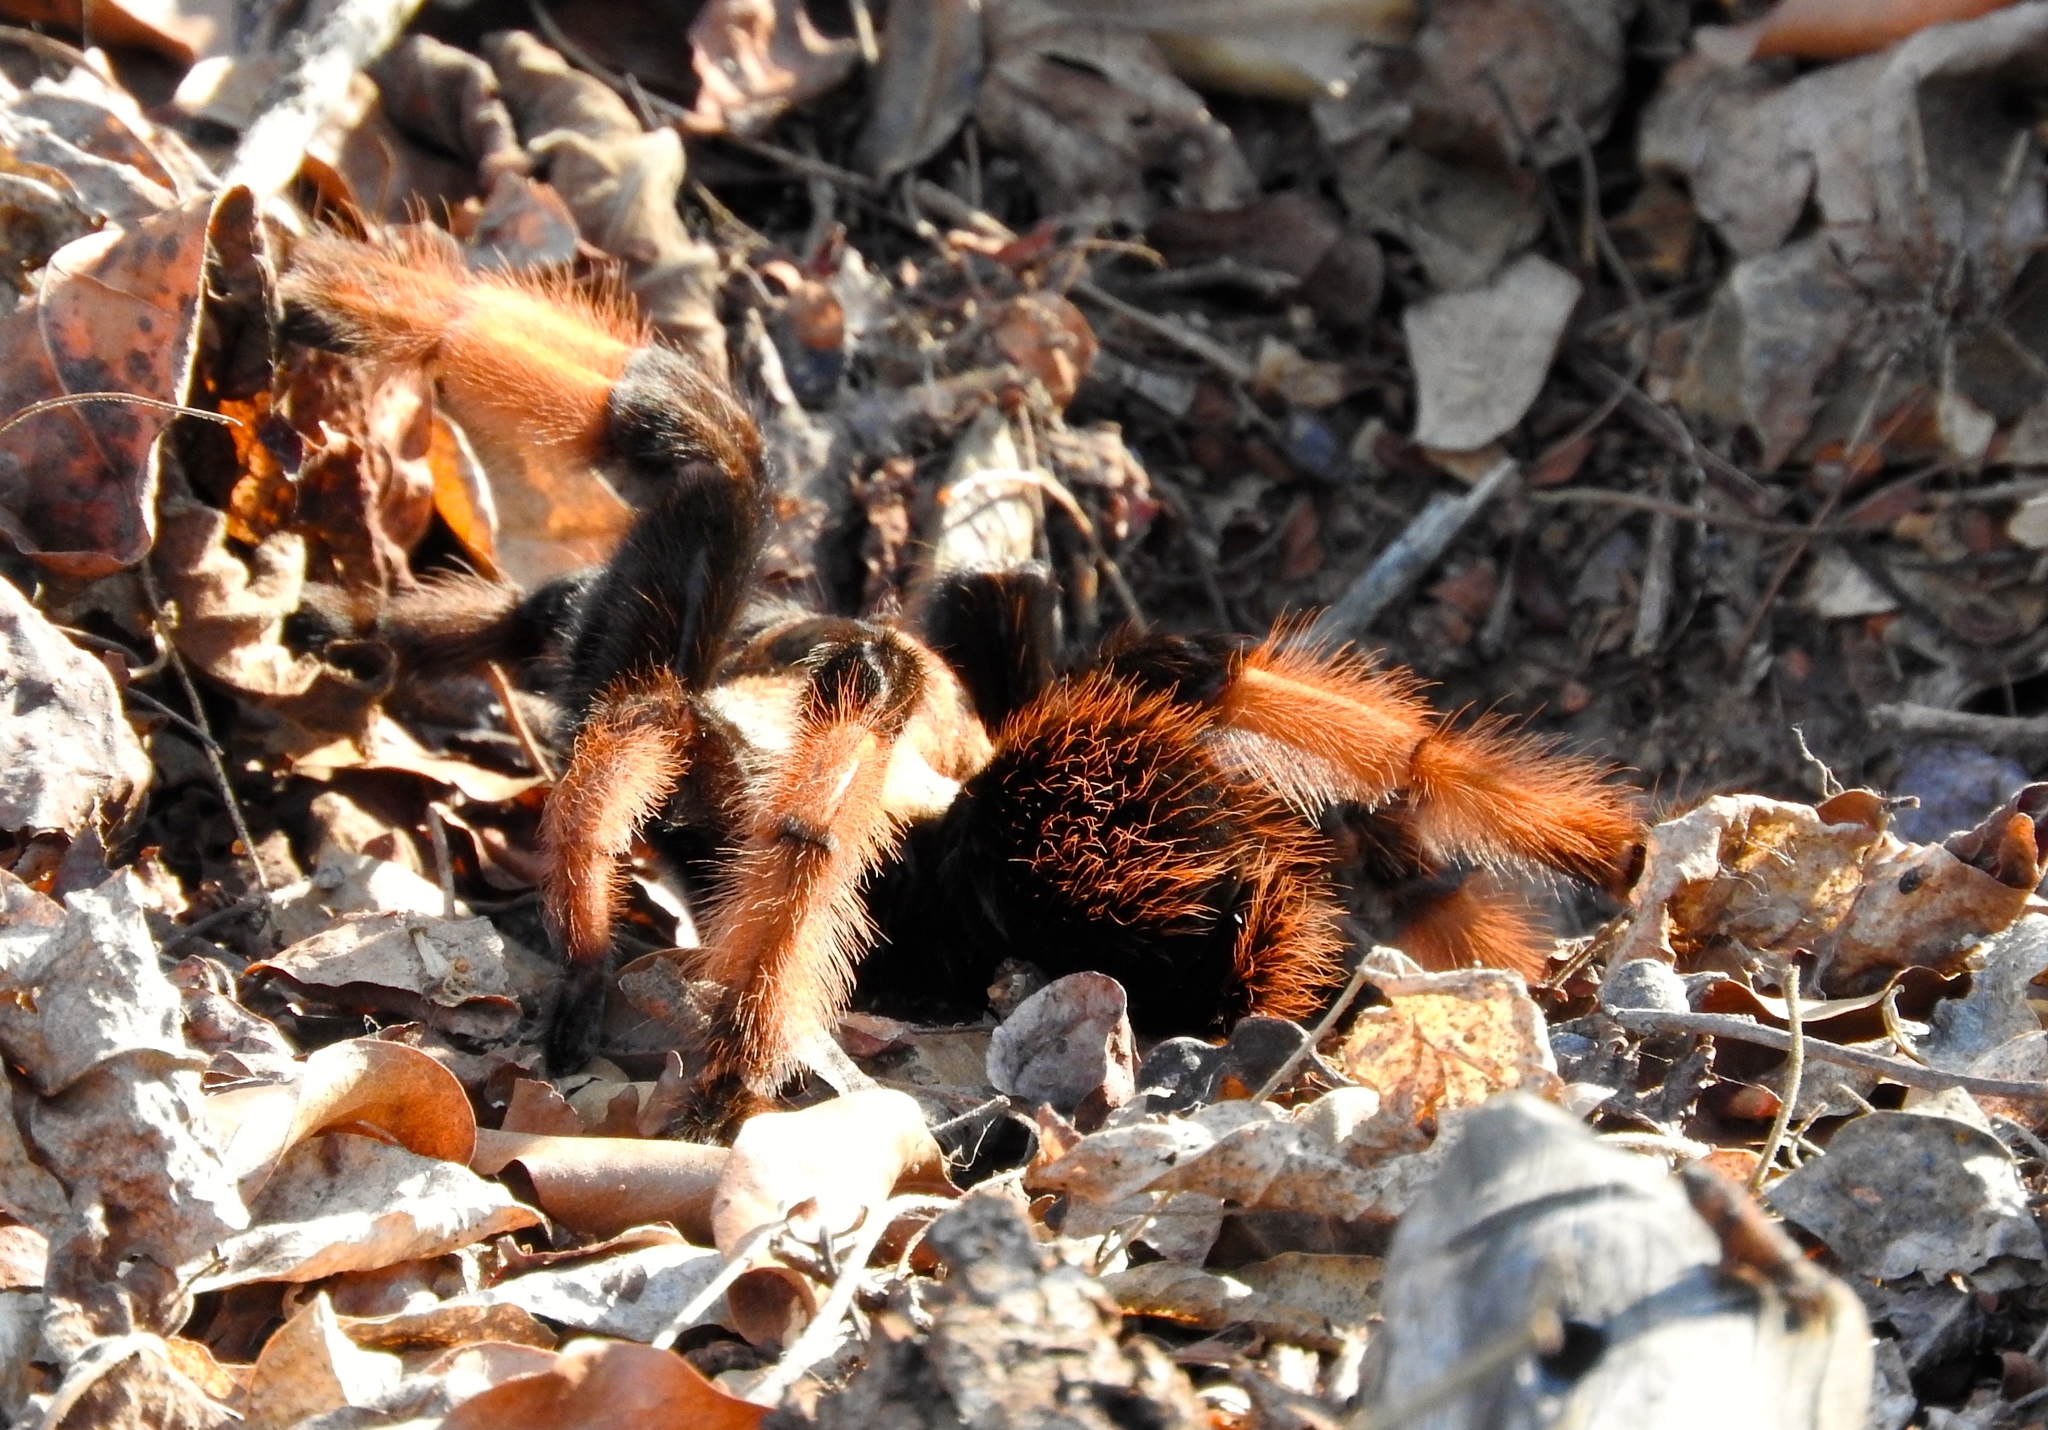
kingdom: Animalia
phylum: Arthropoda
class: Arachnida
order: Araneae
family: Theraphosidae
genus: Brachypelma
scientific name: Brachypelma emilia
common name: Mexican redleg
